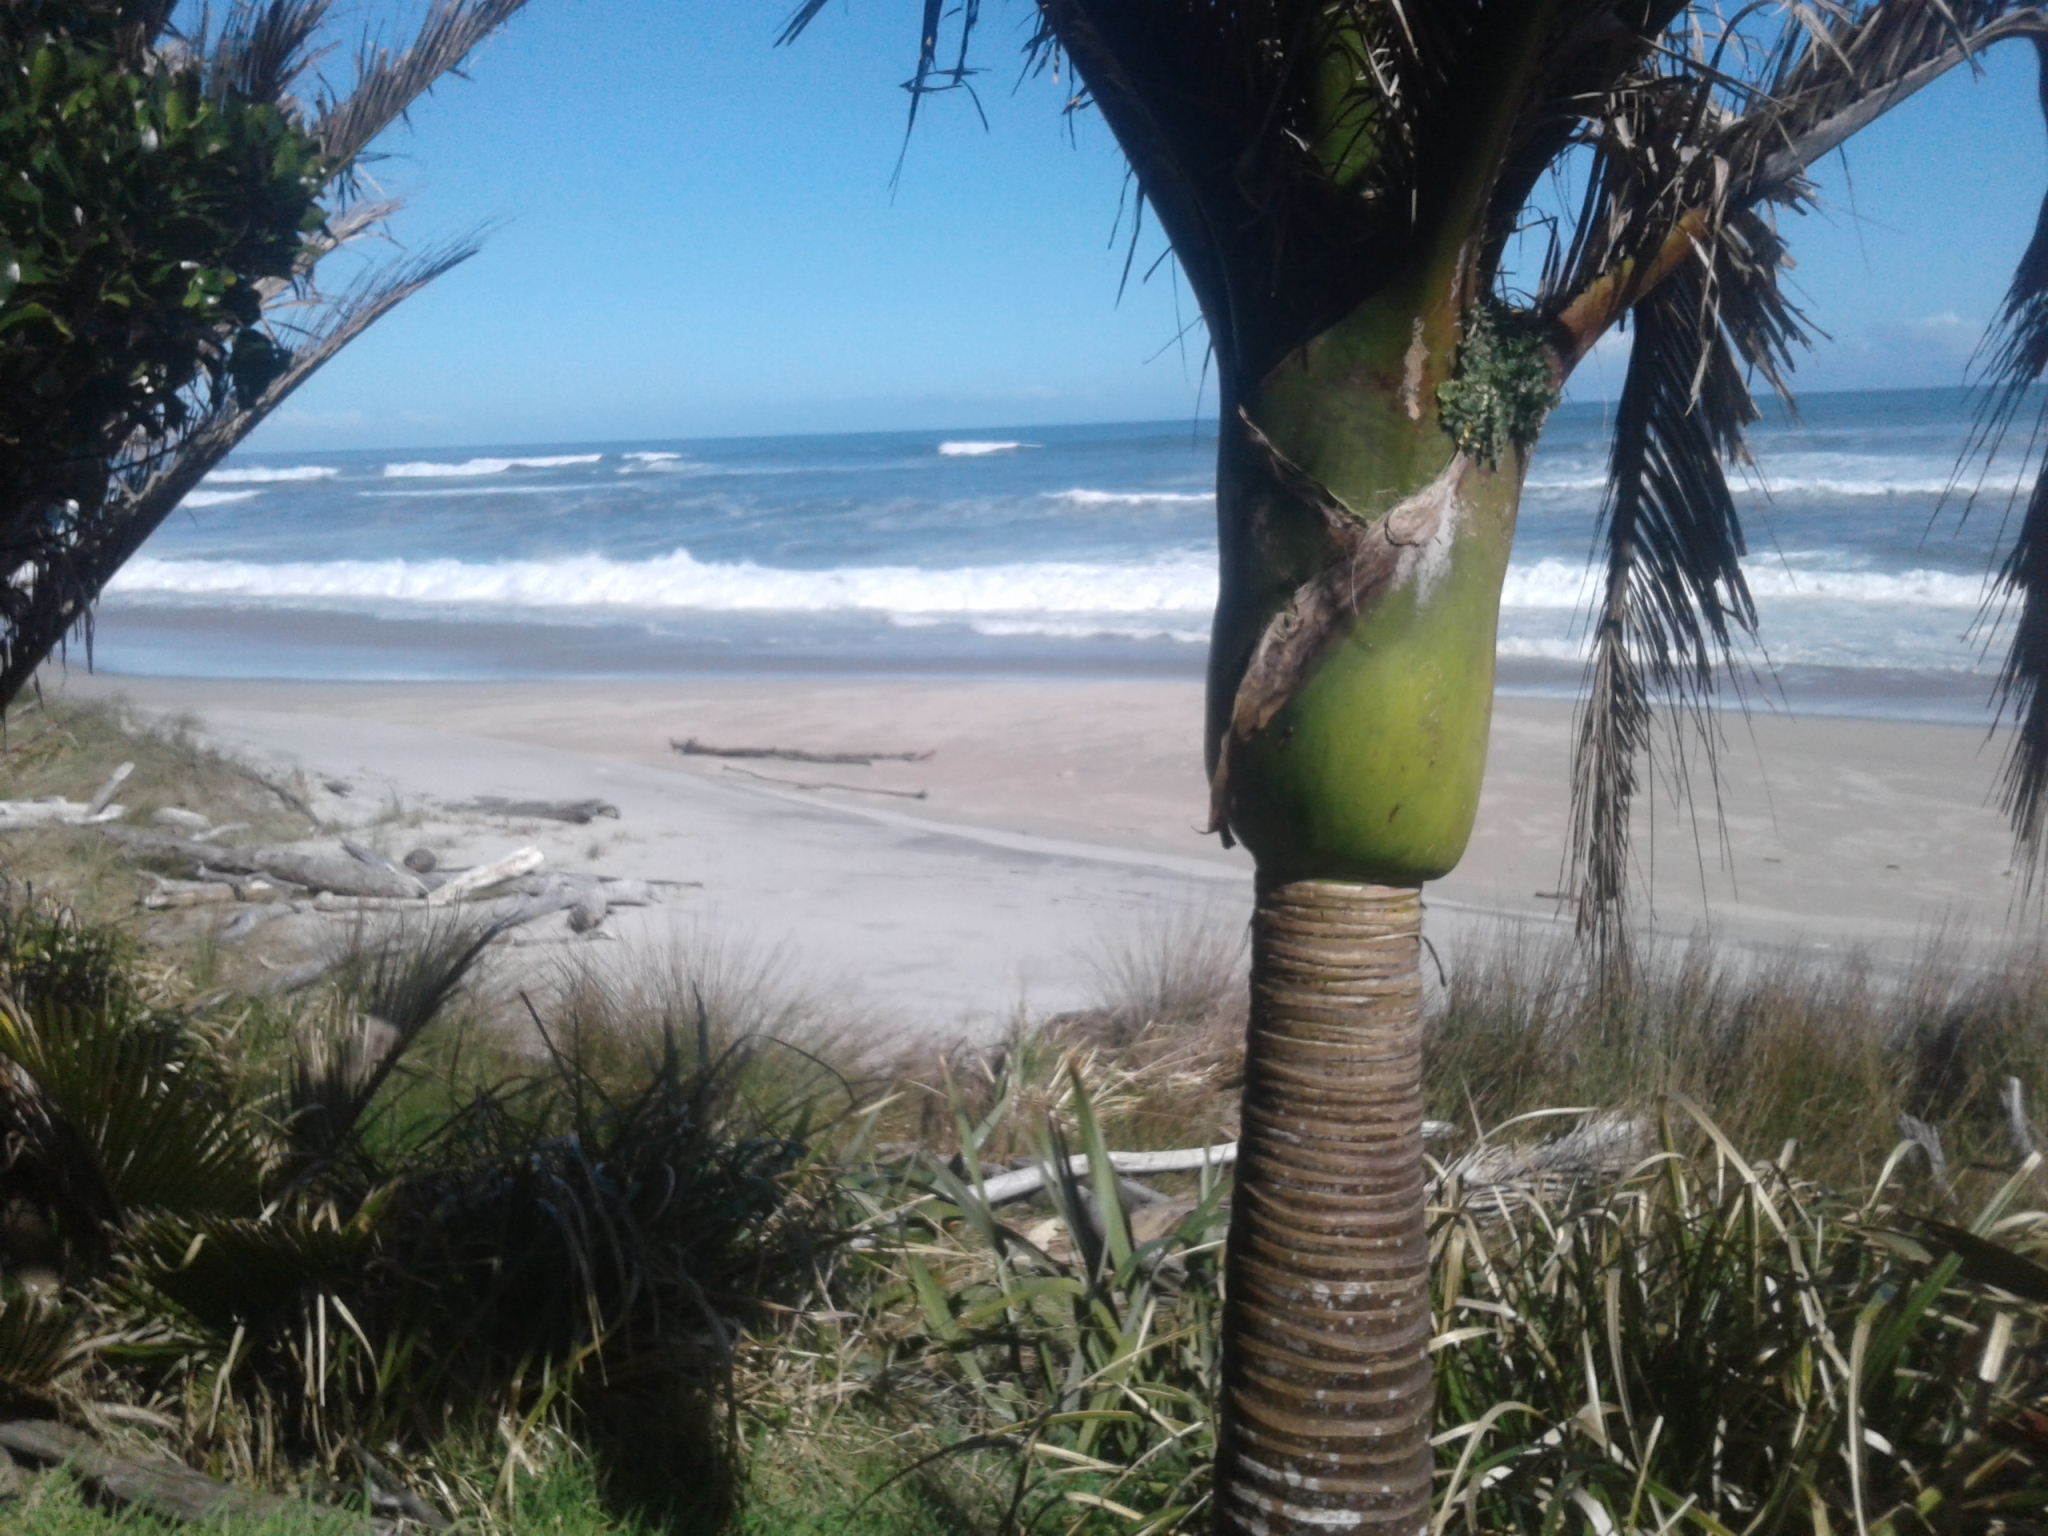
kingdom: Plantae
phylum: Tracheophyta
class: Liliopsida
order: Arecales
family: Arecaceae
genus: Rhopalostylis
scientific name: Rhopalostylis sapida
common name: Feather-duster palm
